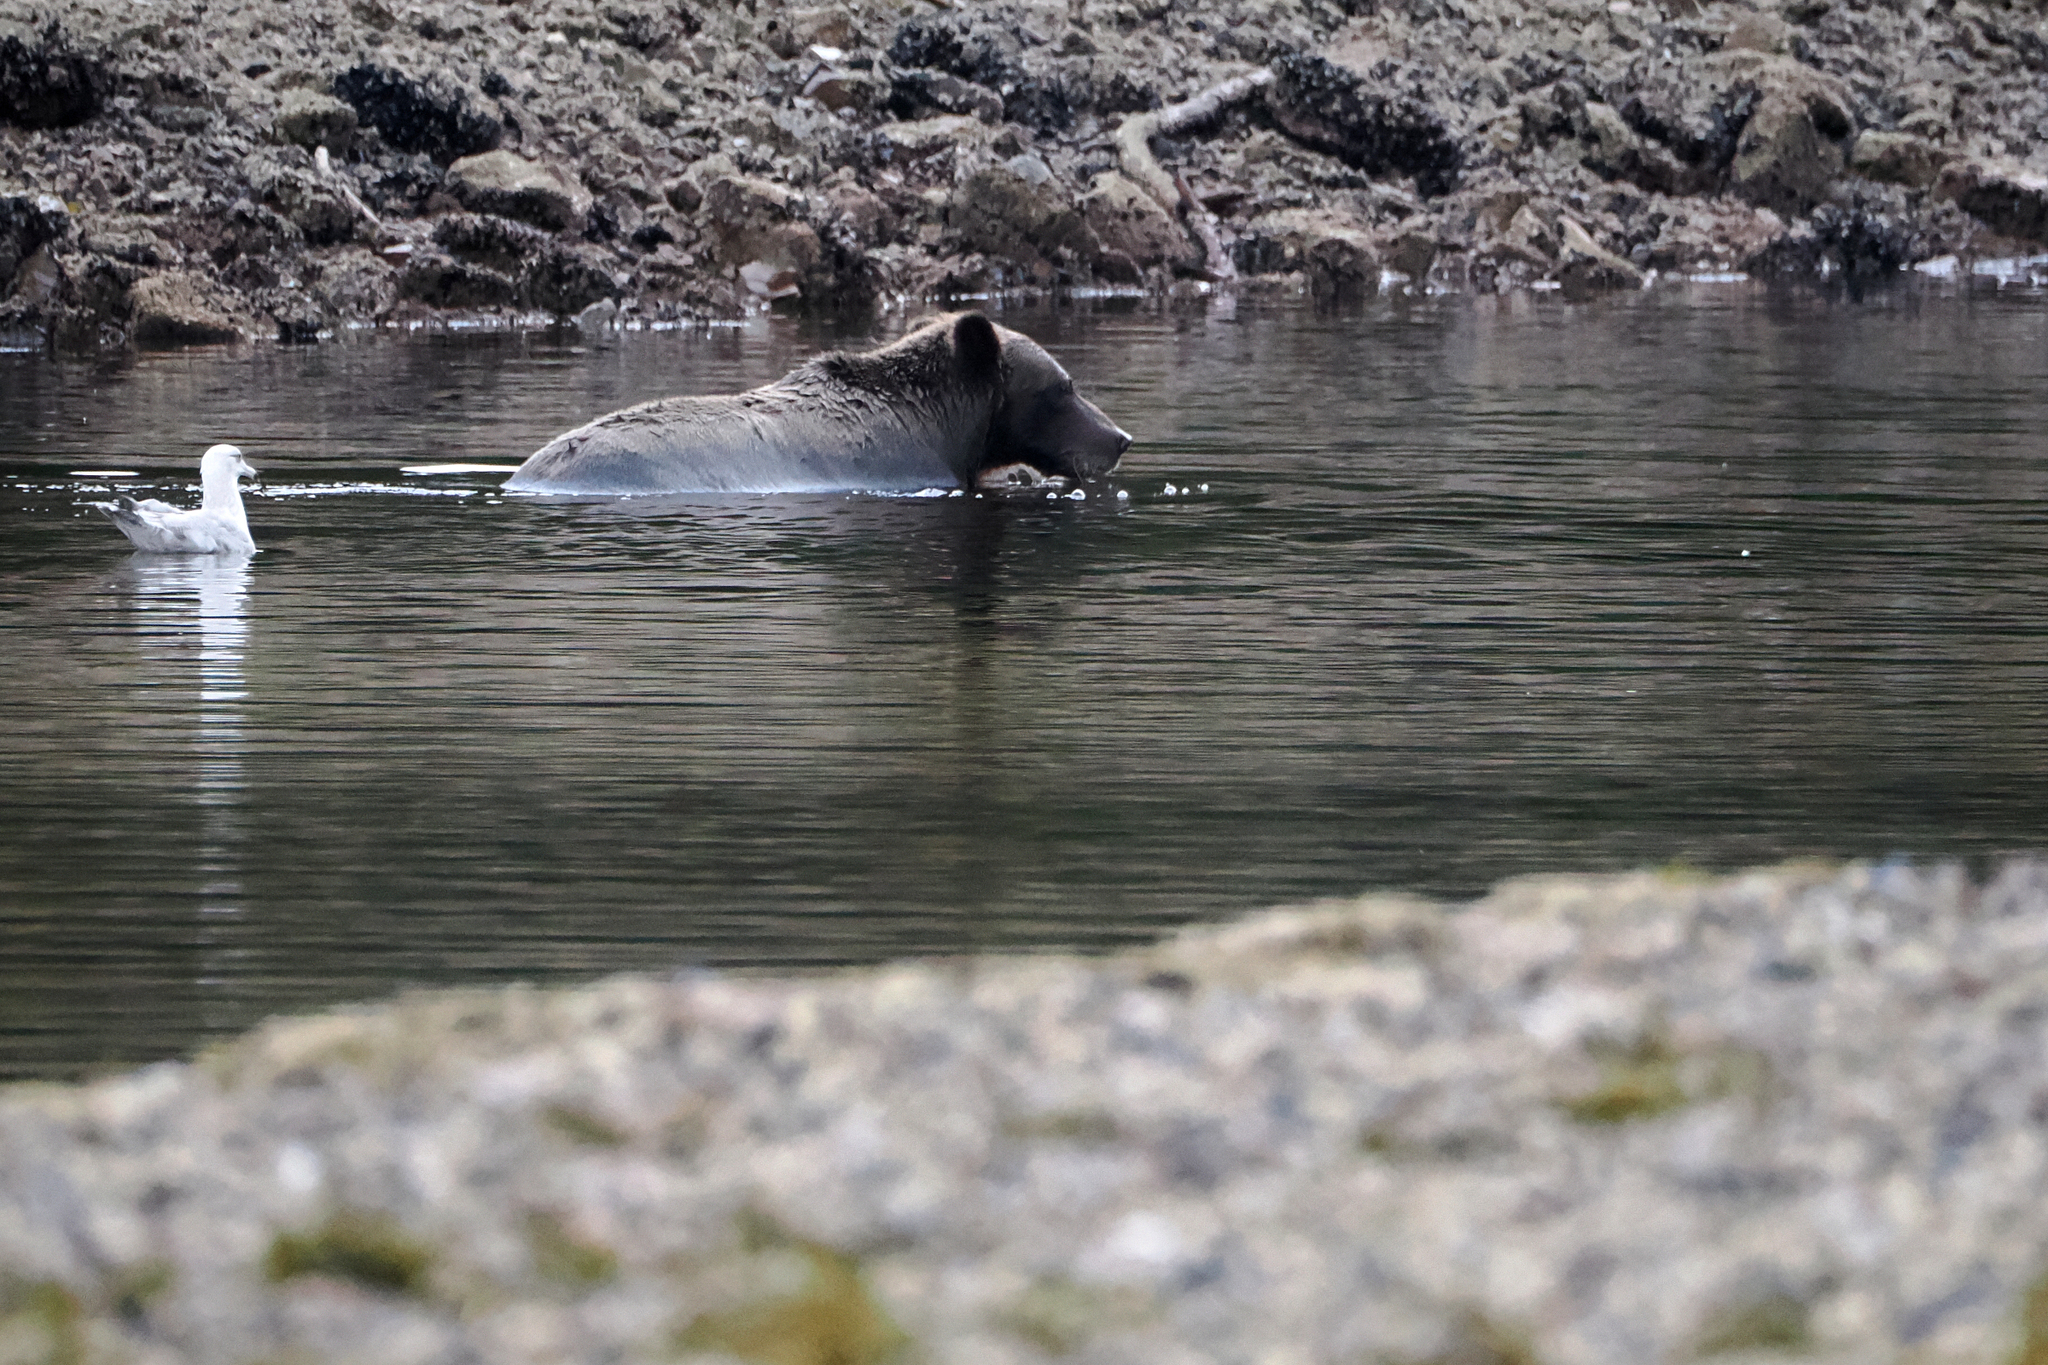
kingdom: Animalia
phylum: Chordata
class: Mammalia
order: Carnivora
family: Ursidae
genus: Ursus
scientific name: Ursus arctos
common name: Brown bear
